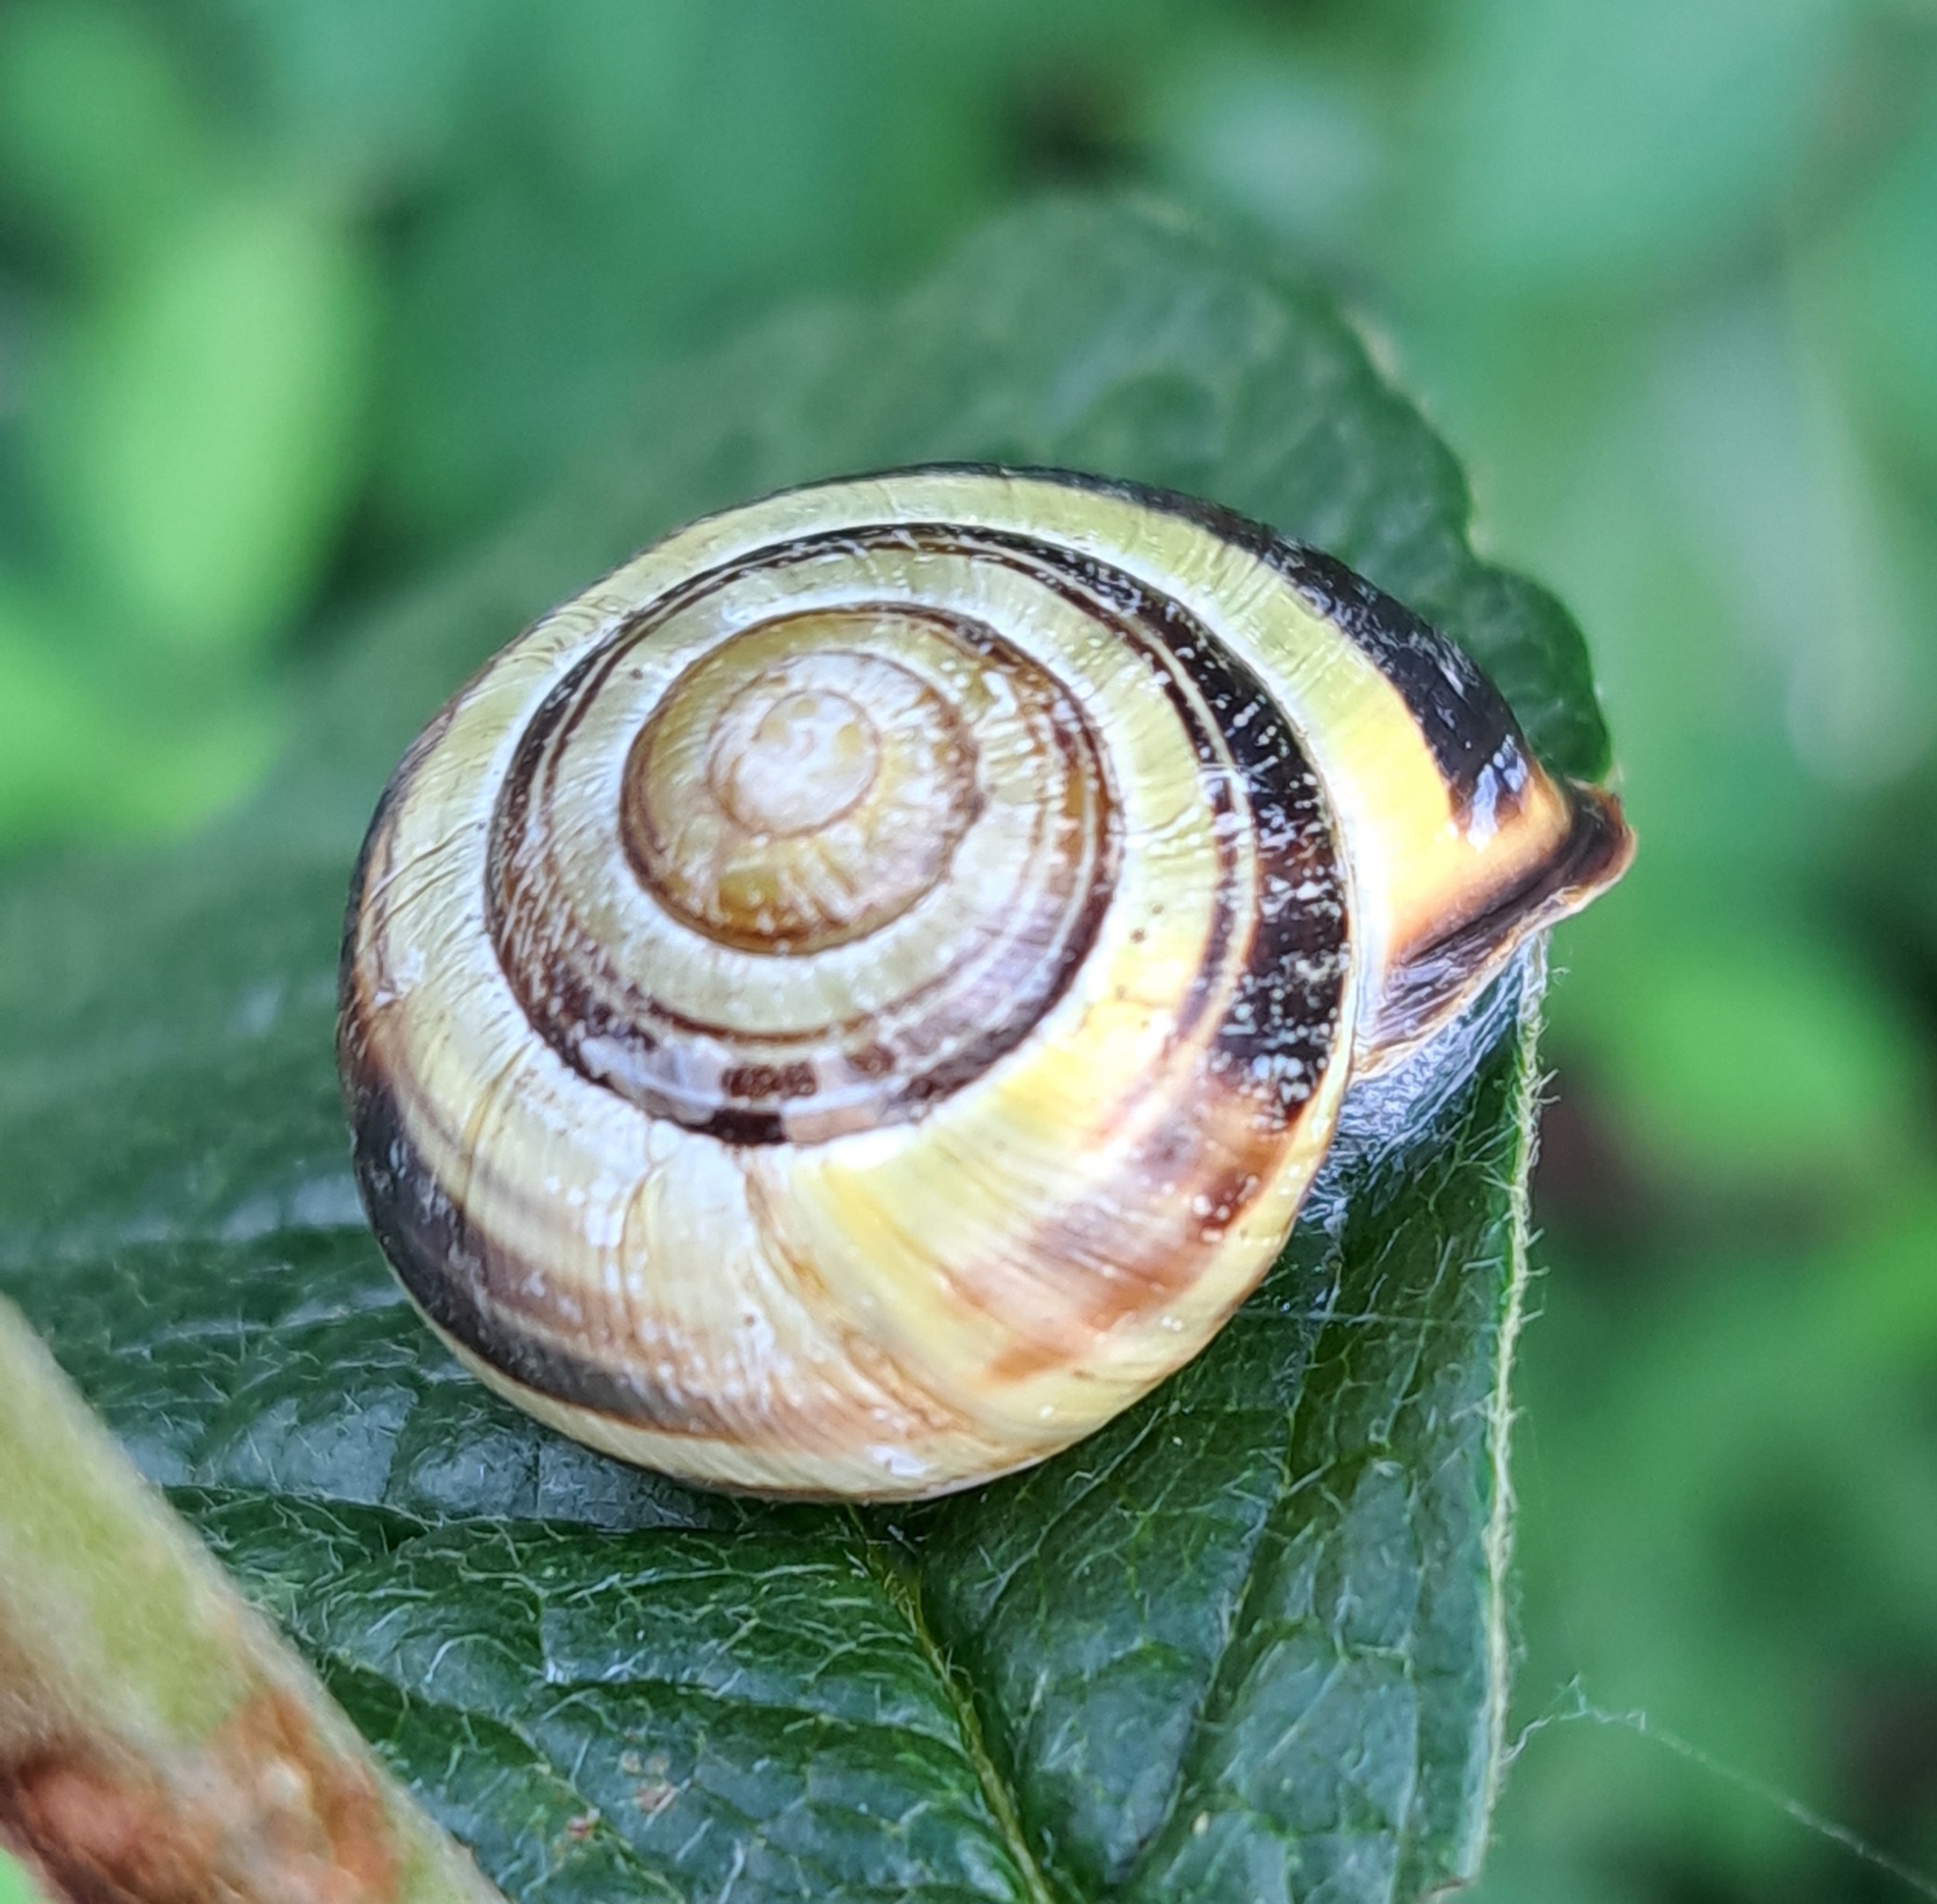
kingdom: Animalia
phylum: Mollusca
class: Gastropoda
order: Stylommatophora
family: Helicidae
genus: Cepaea
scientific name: Cepaea nemoralis
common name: Grovesnail
